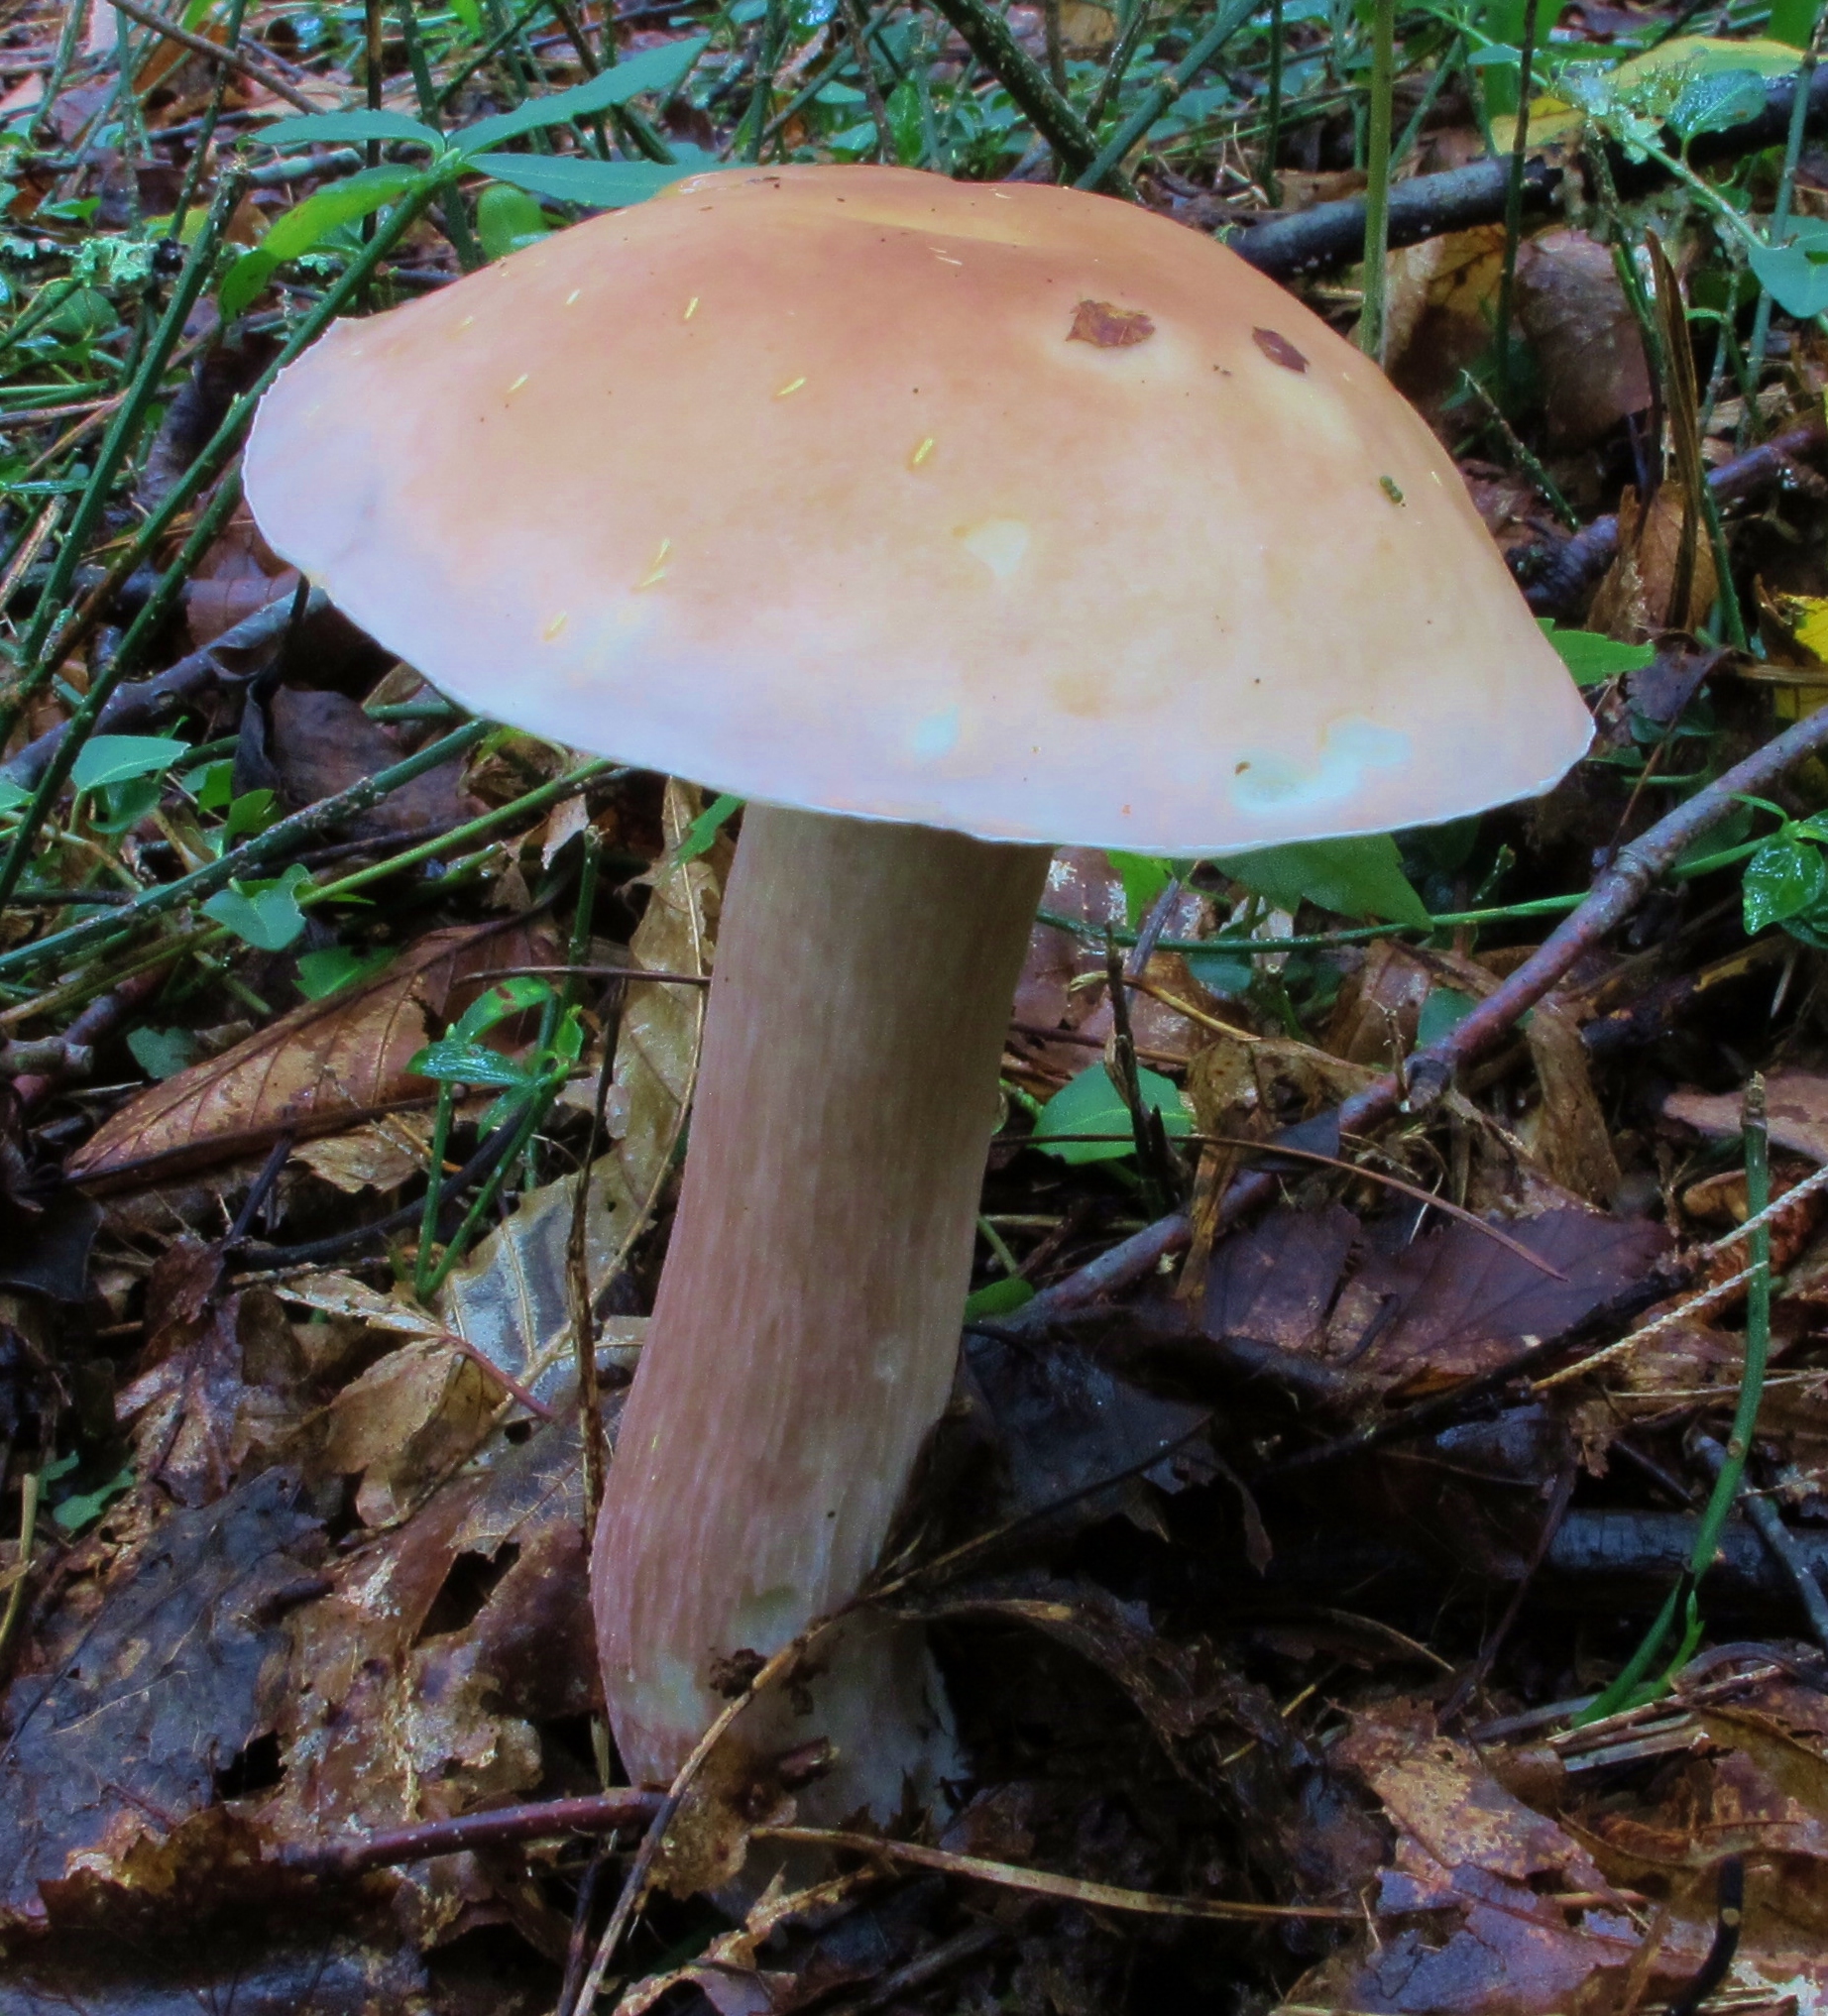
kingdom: Fungi
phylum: Basidiomycota
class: Agaricomycetes
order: Boletales
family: Boletaceae
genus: Xanthoconium
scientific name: Xanthoconium separans
